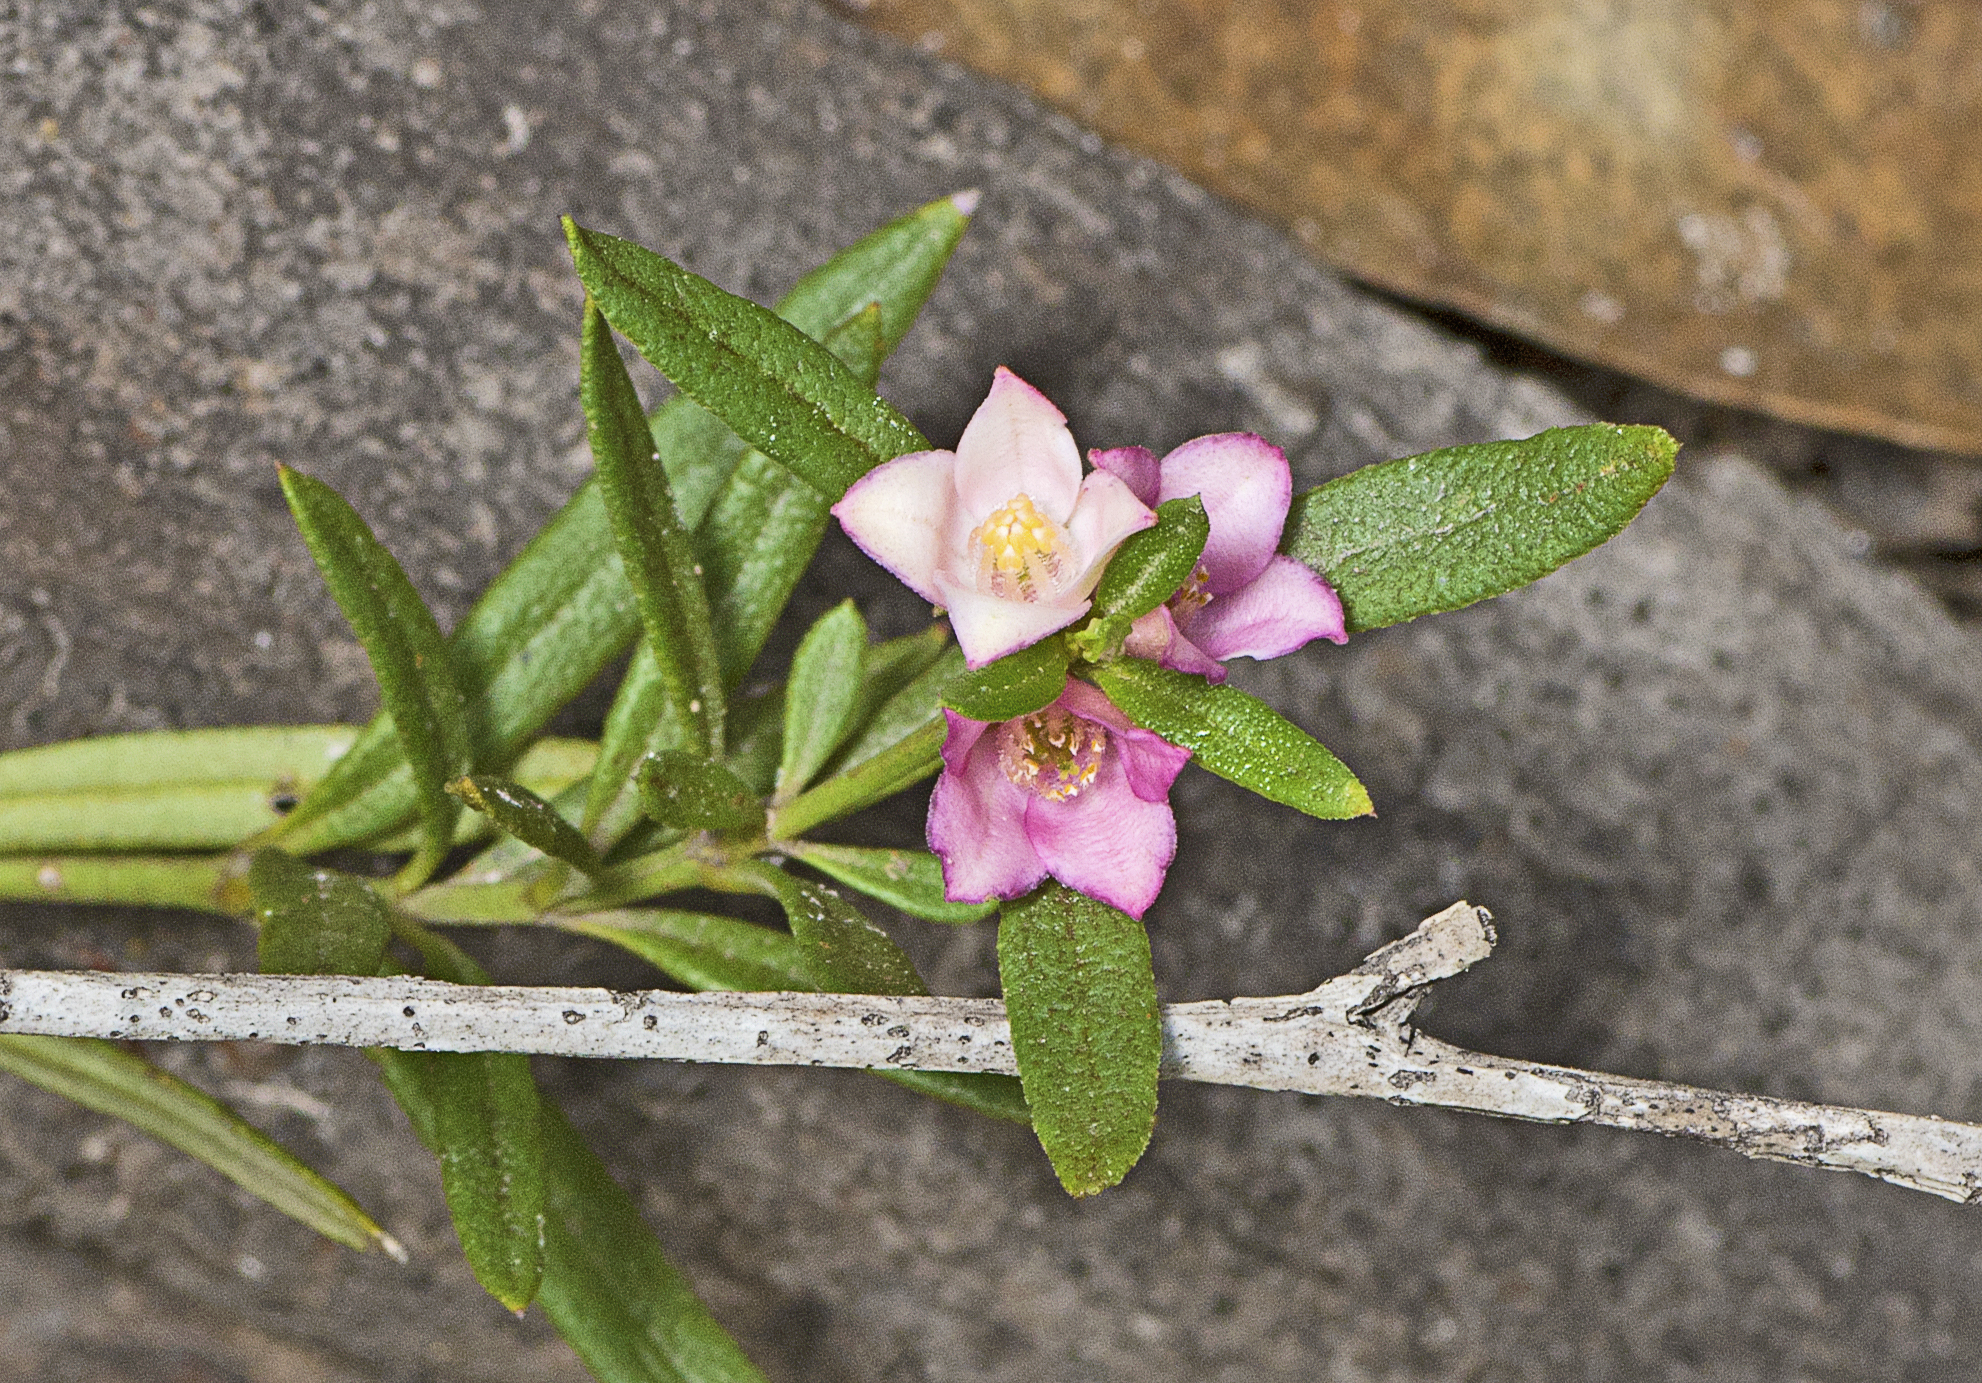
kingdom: Plantae
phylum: Tracheophyta
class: Magnoliopsida
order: Sapindales
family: Rutaceae
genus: Cyanothamnus
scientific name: Cyanothamnus polygalifolius
